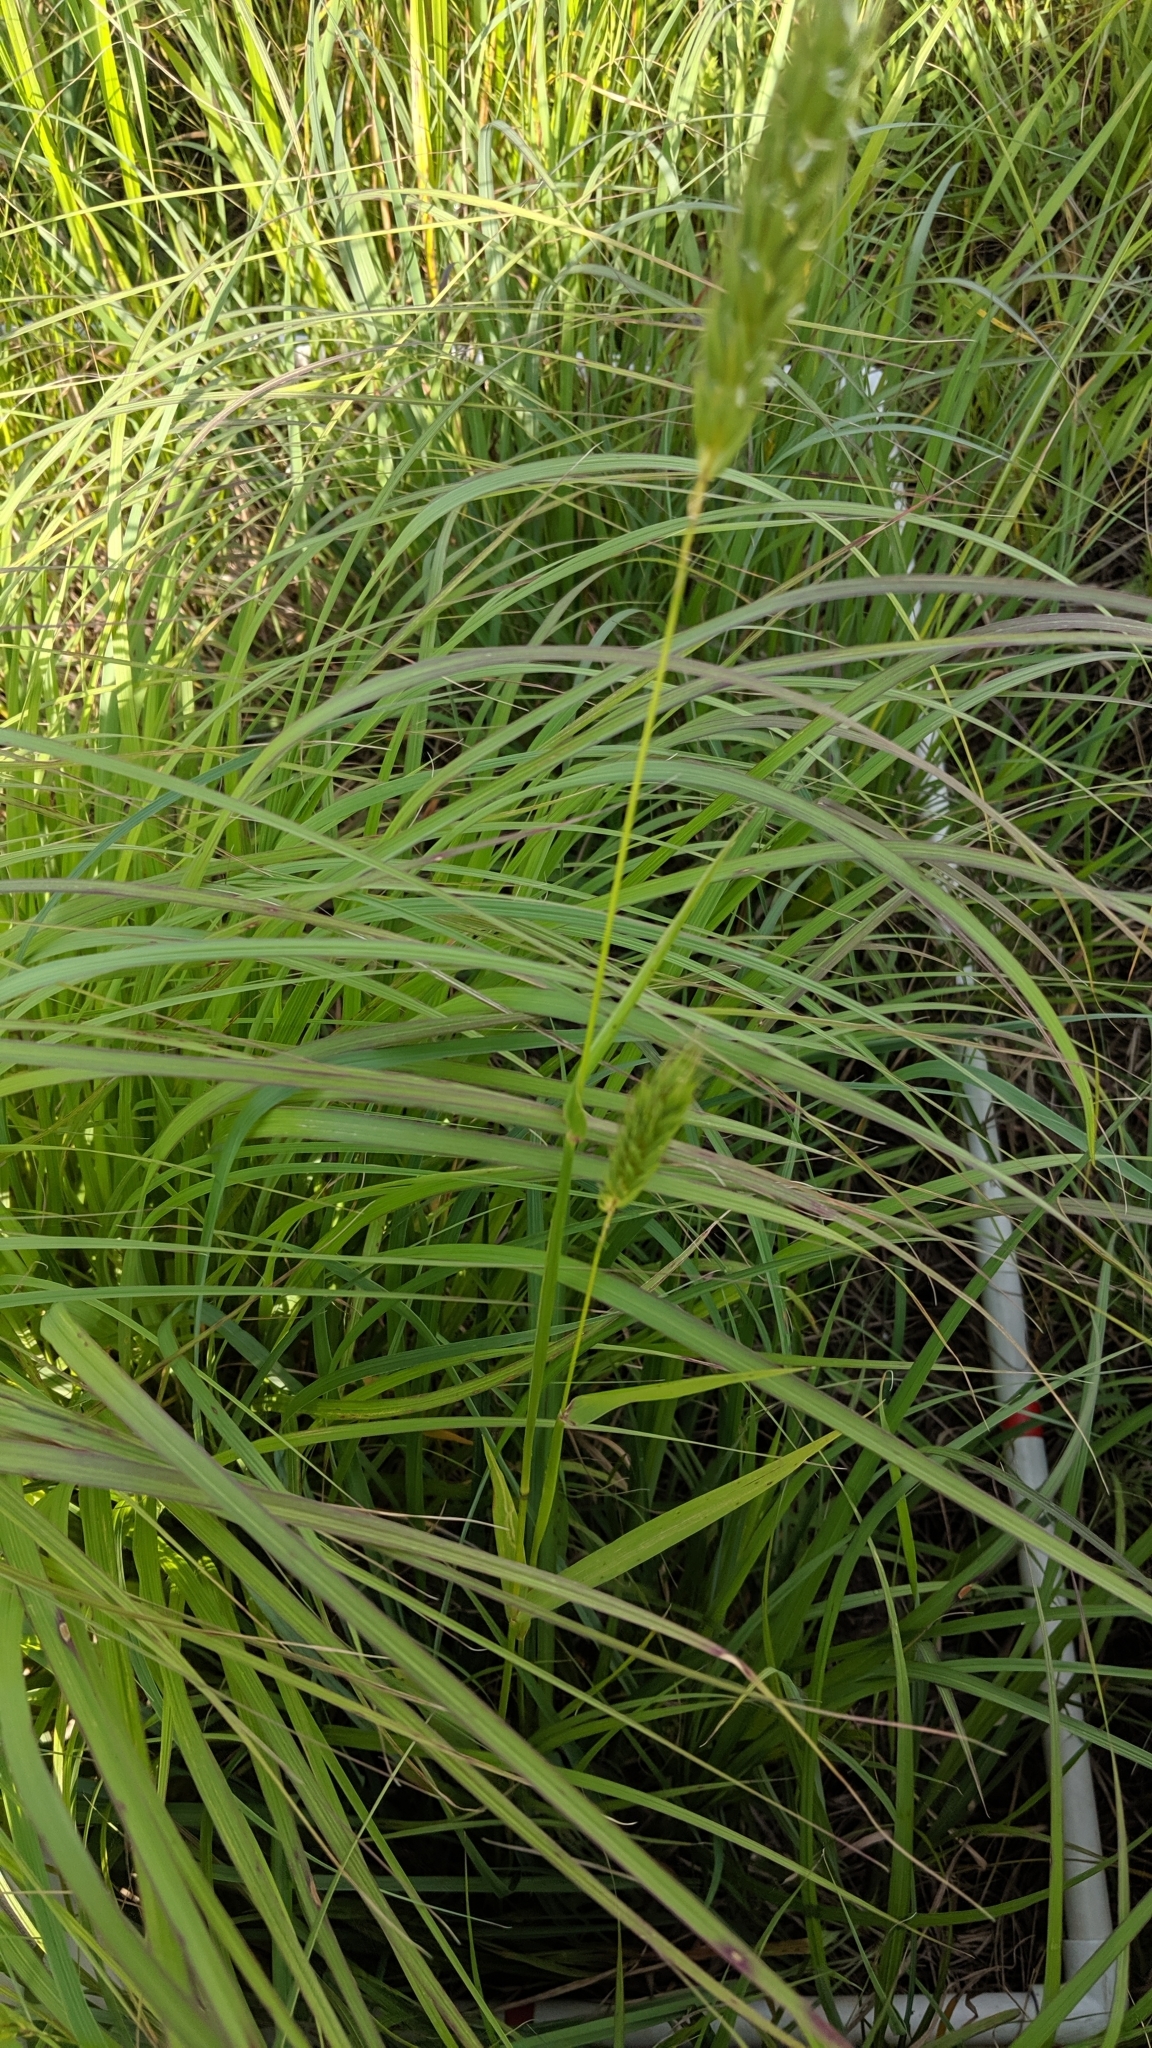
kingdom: Plantae
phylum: Tracheophyta
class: Liliopsida
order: Poales
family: Poaceae
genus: Elymus
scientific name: Elymus virginicus
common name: Common eastern wildrye
